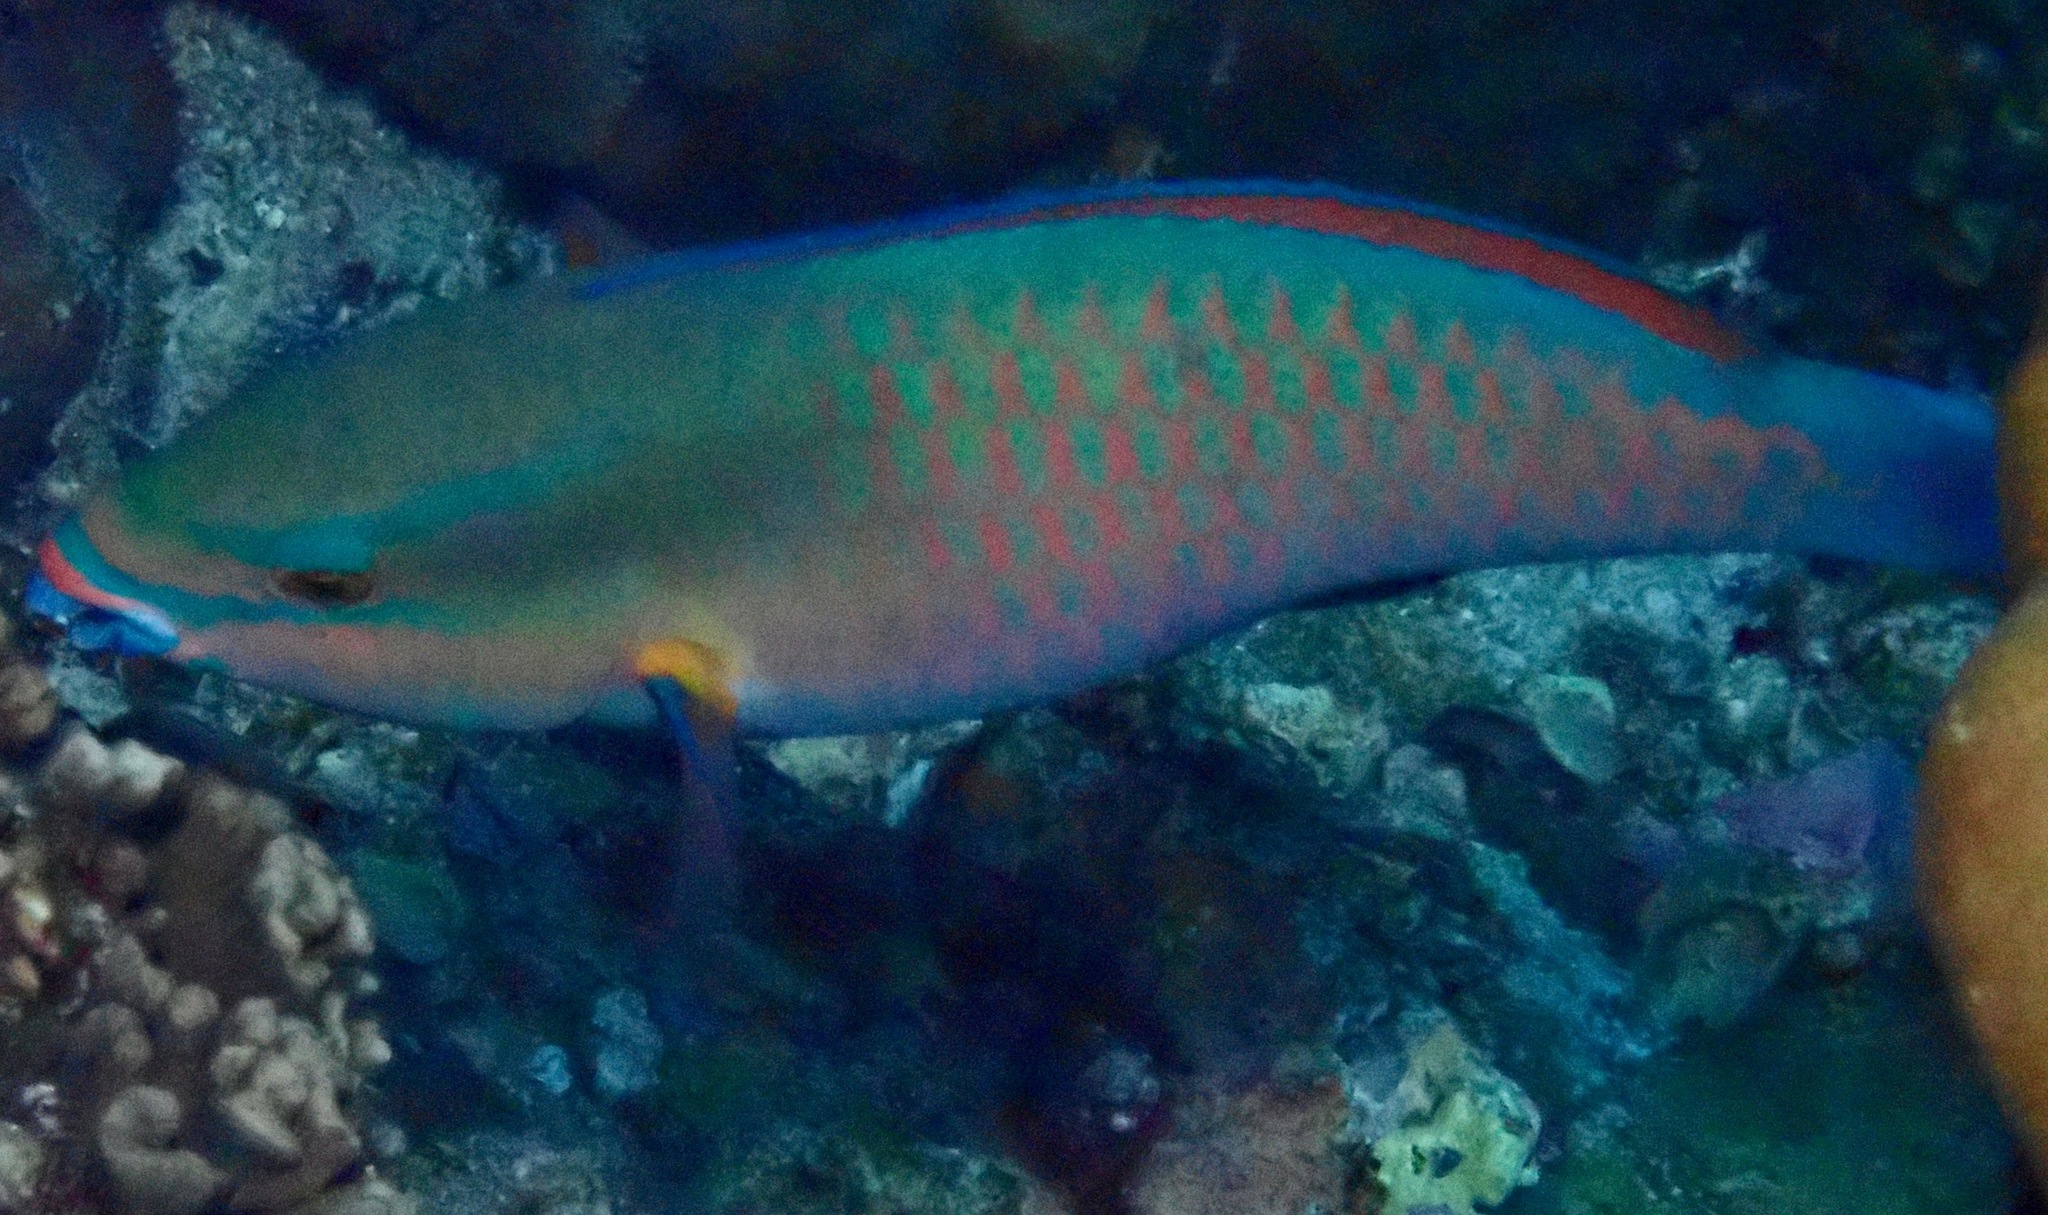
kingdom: Animalia
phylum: Chordata
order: Perciformes
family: Scaridae
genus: Scarus
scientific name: Scarus tricolor
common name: Tricolour parrotfish
